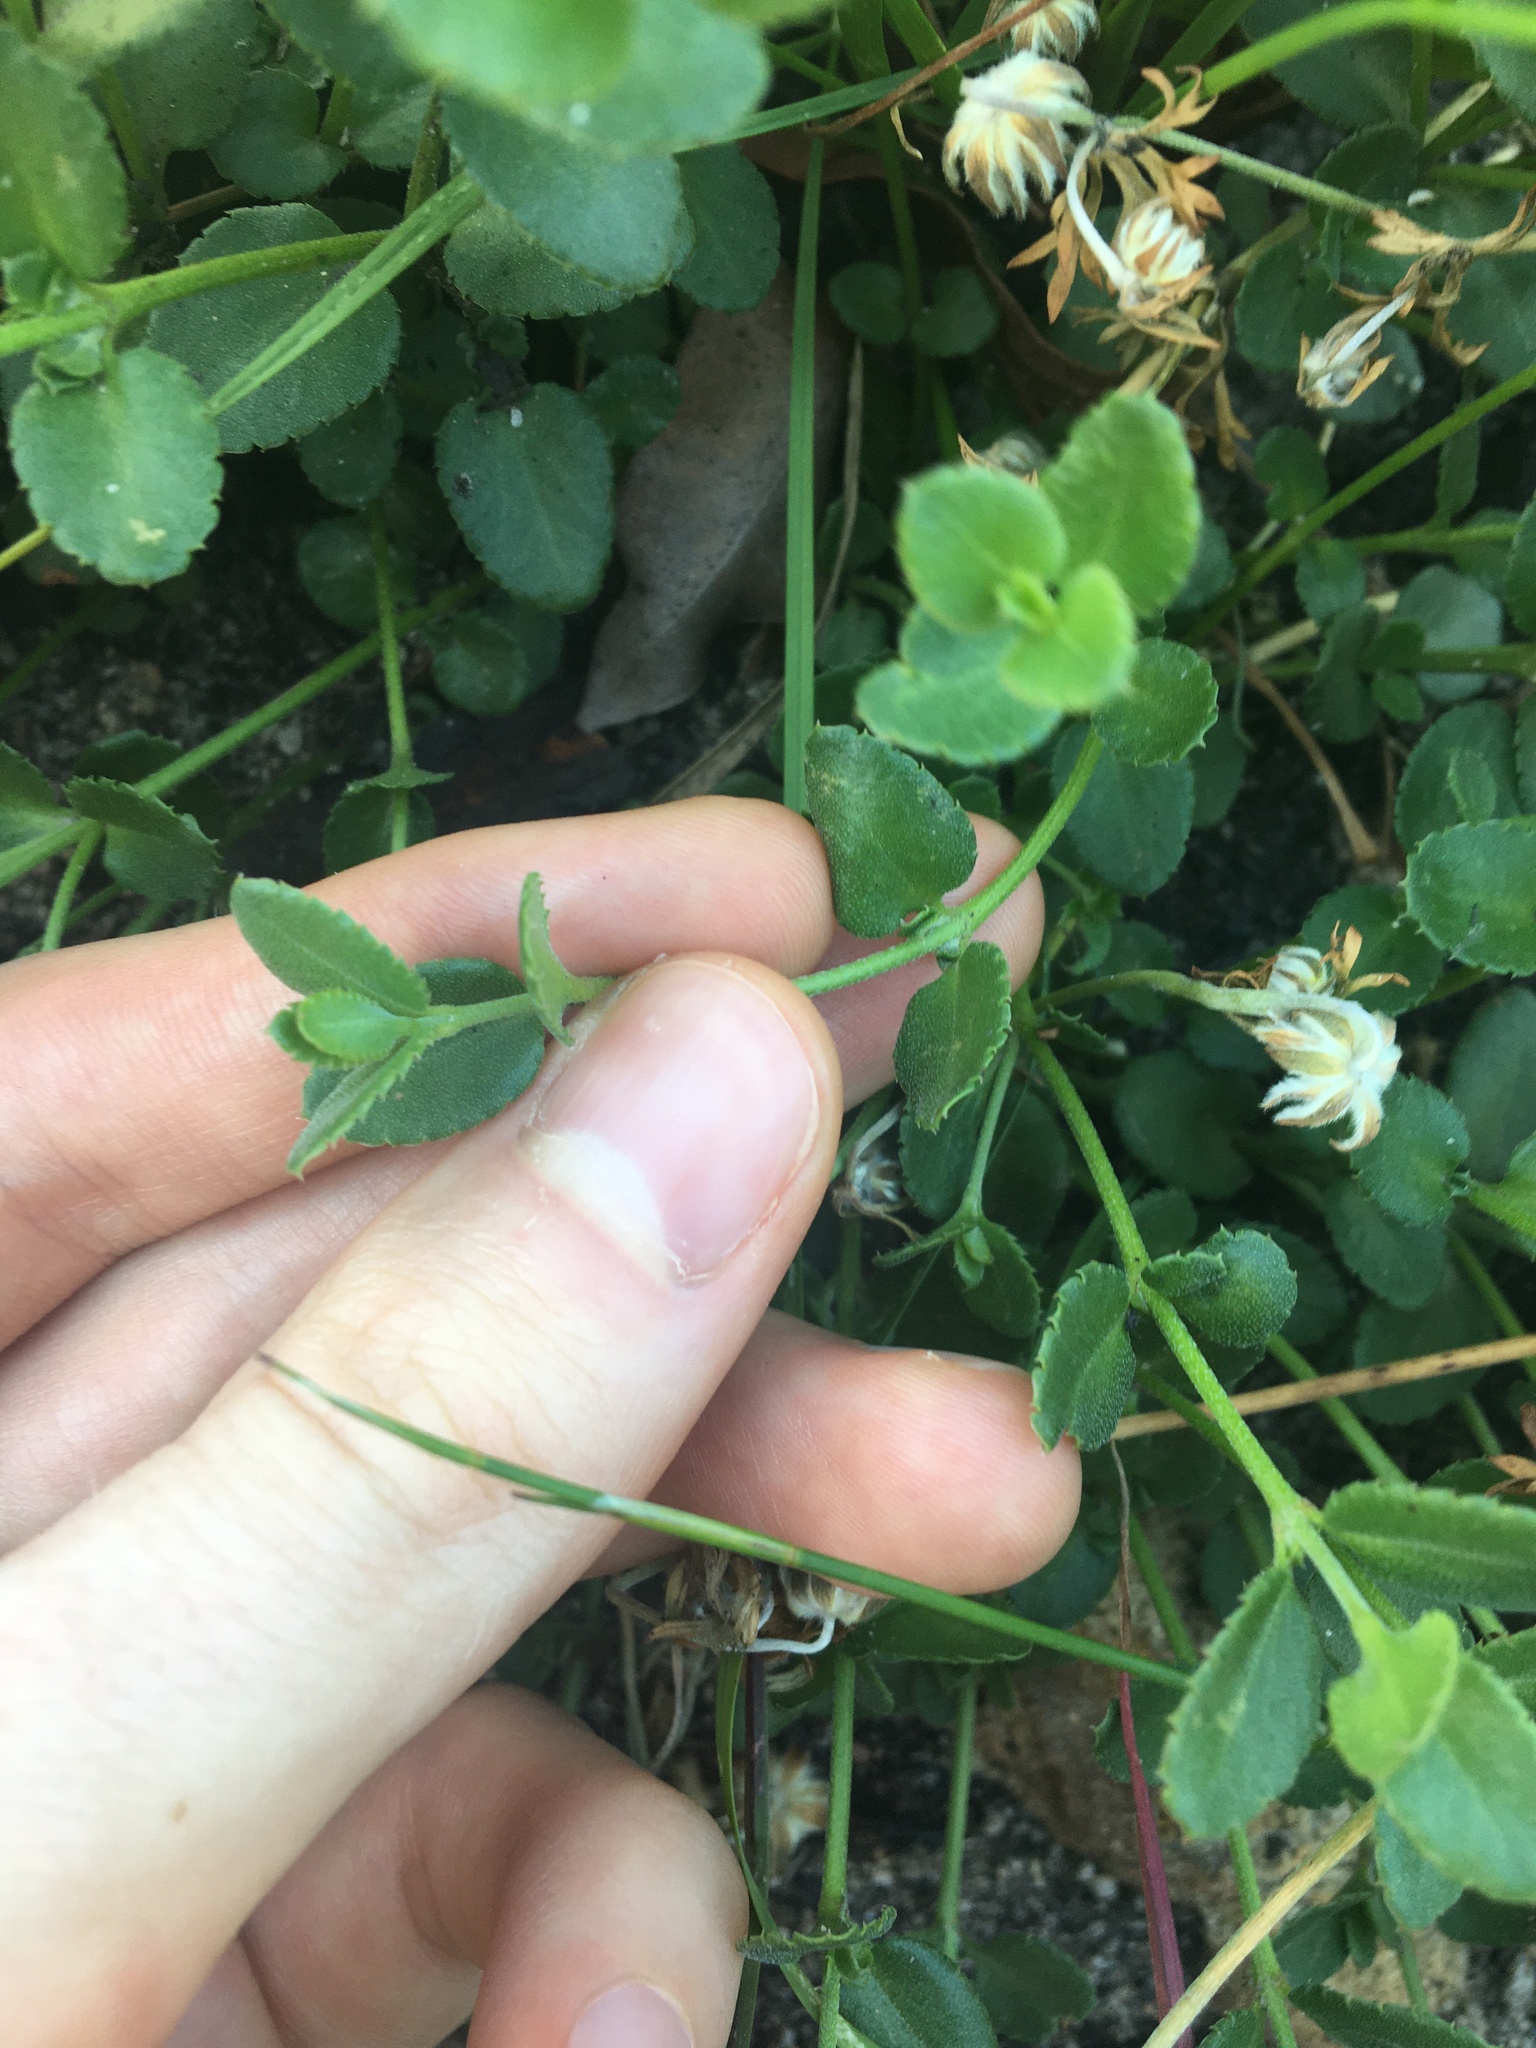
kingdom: Plantae
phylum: Tracheophyta
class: Magnoliopsida
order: Saxifragales
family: Haloragaceae
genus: Gonocarpus
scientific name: Gonocarpus tetragynus
